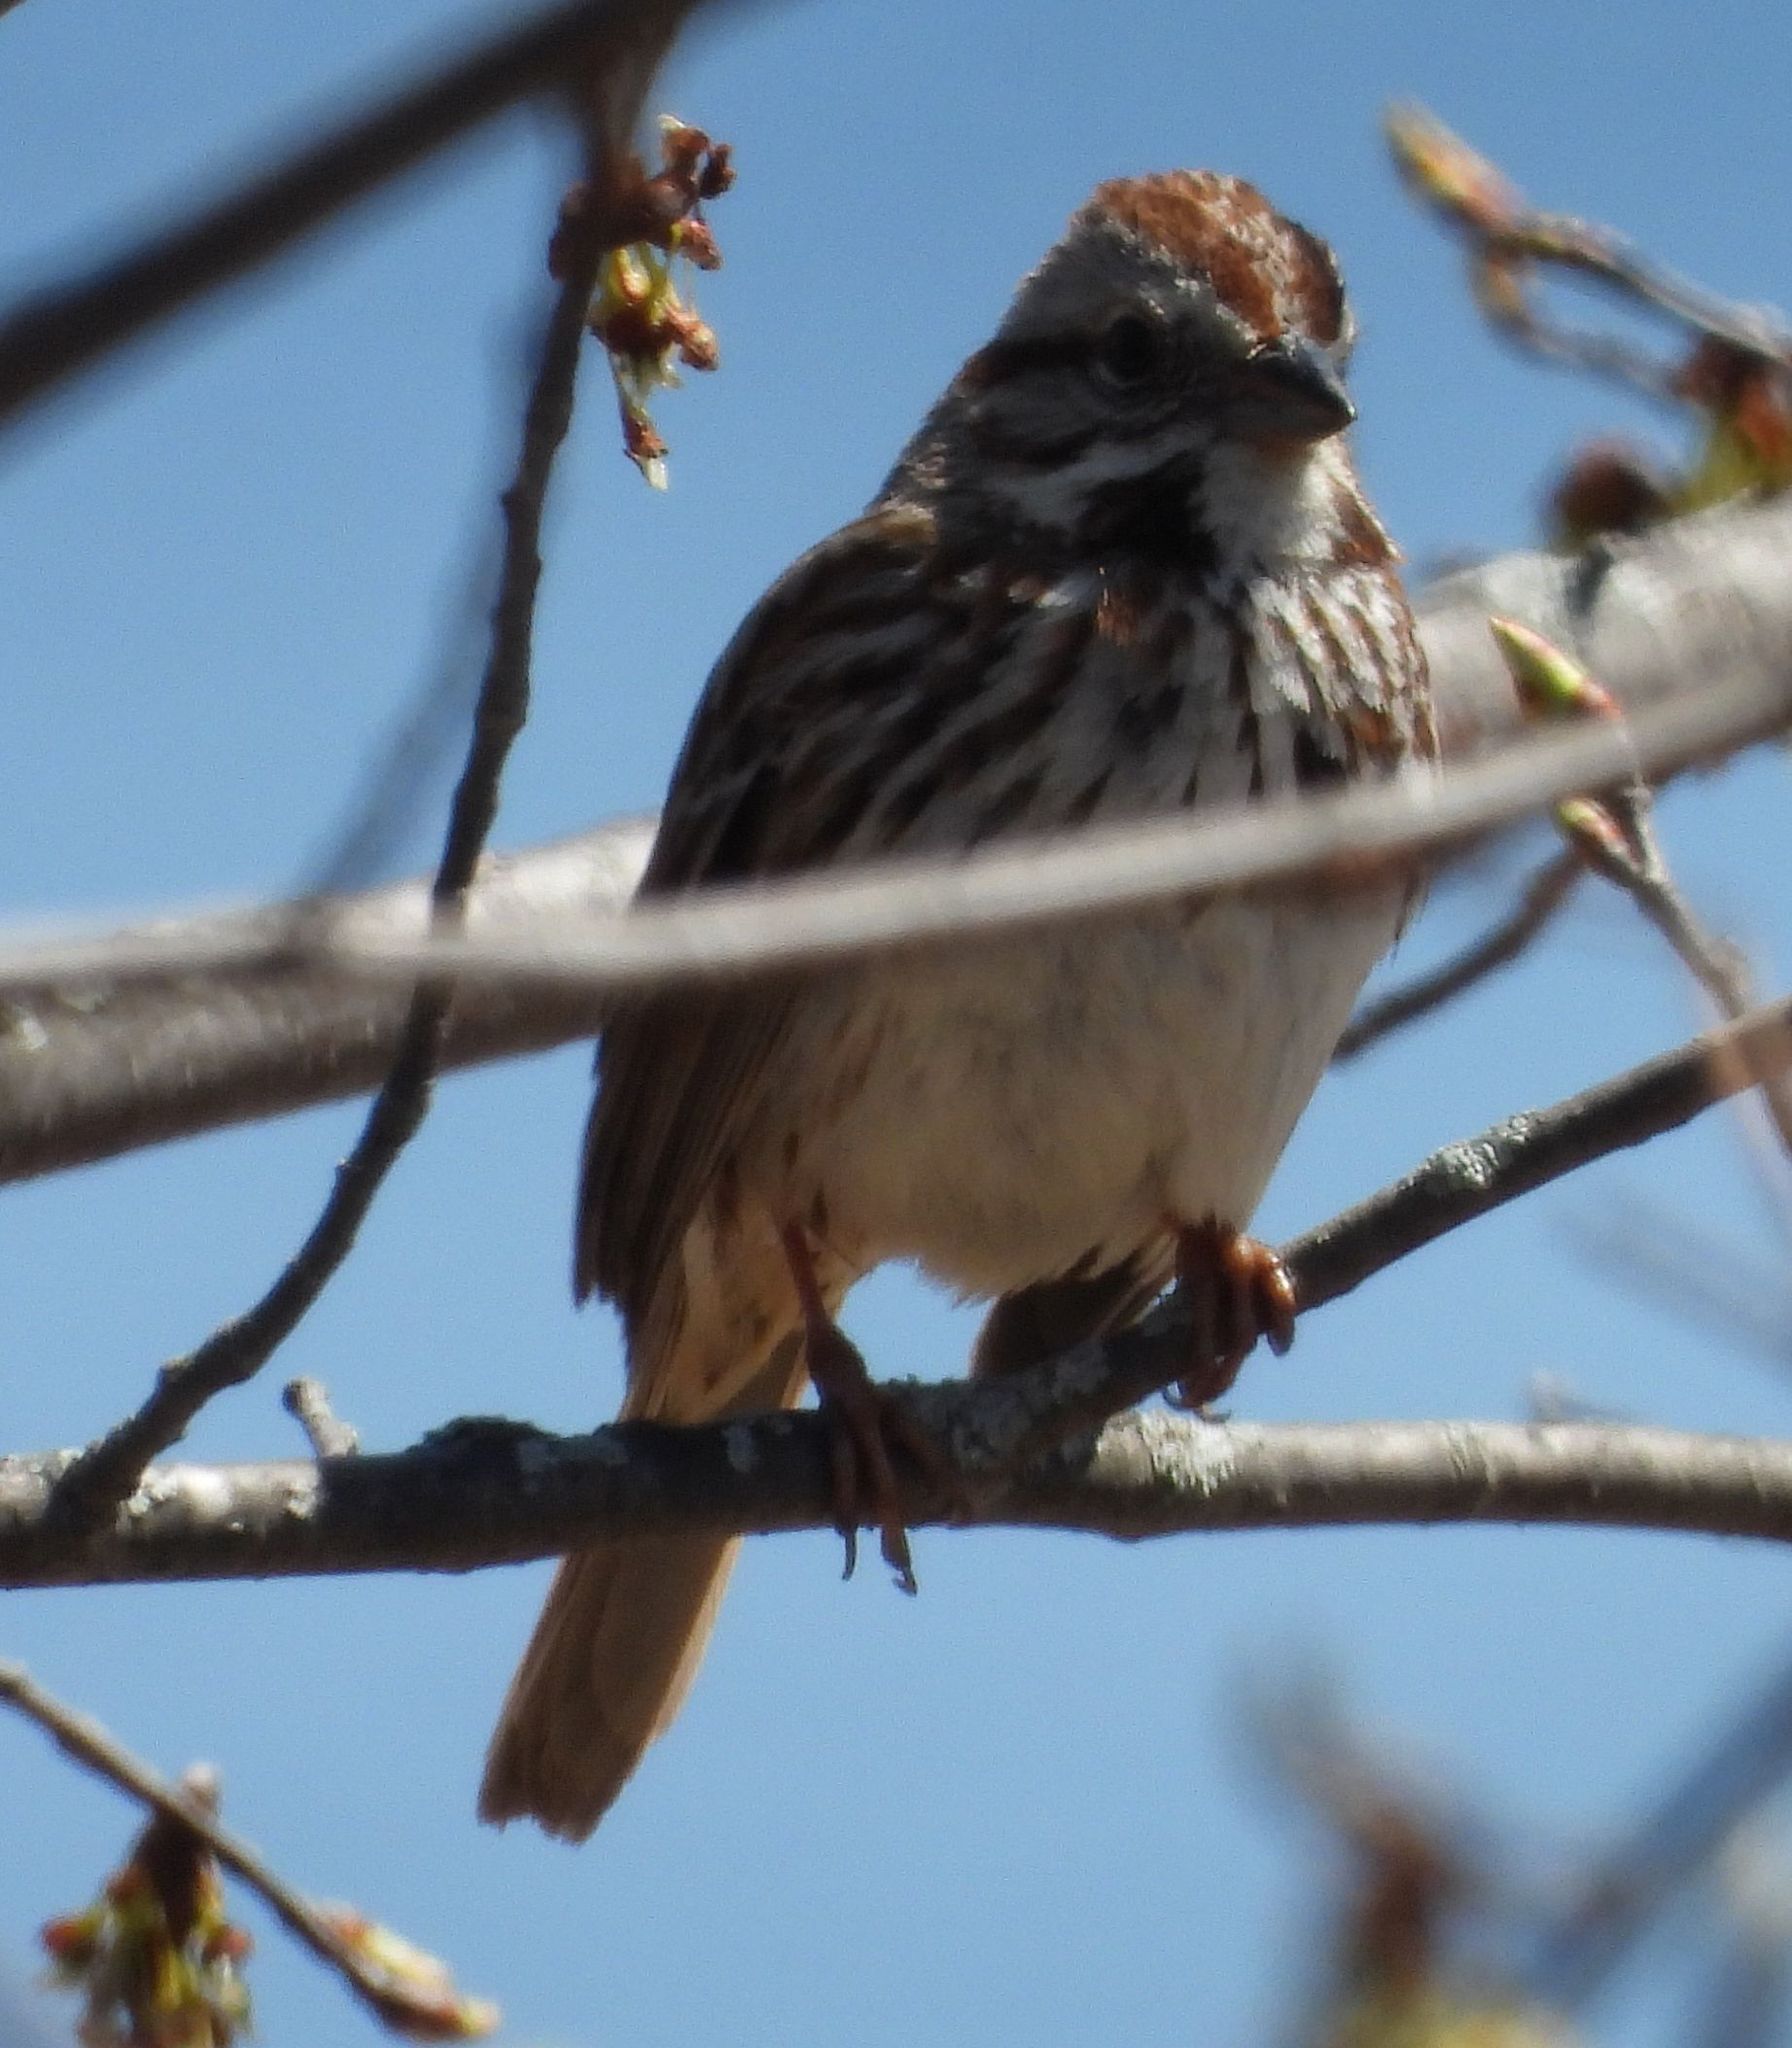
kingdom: Animalia
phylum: Chordata
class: Aves
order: Passeriformes
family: Passerellidae
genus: Melospiza
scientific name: Melospiza melodia
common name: Song sparrow
